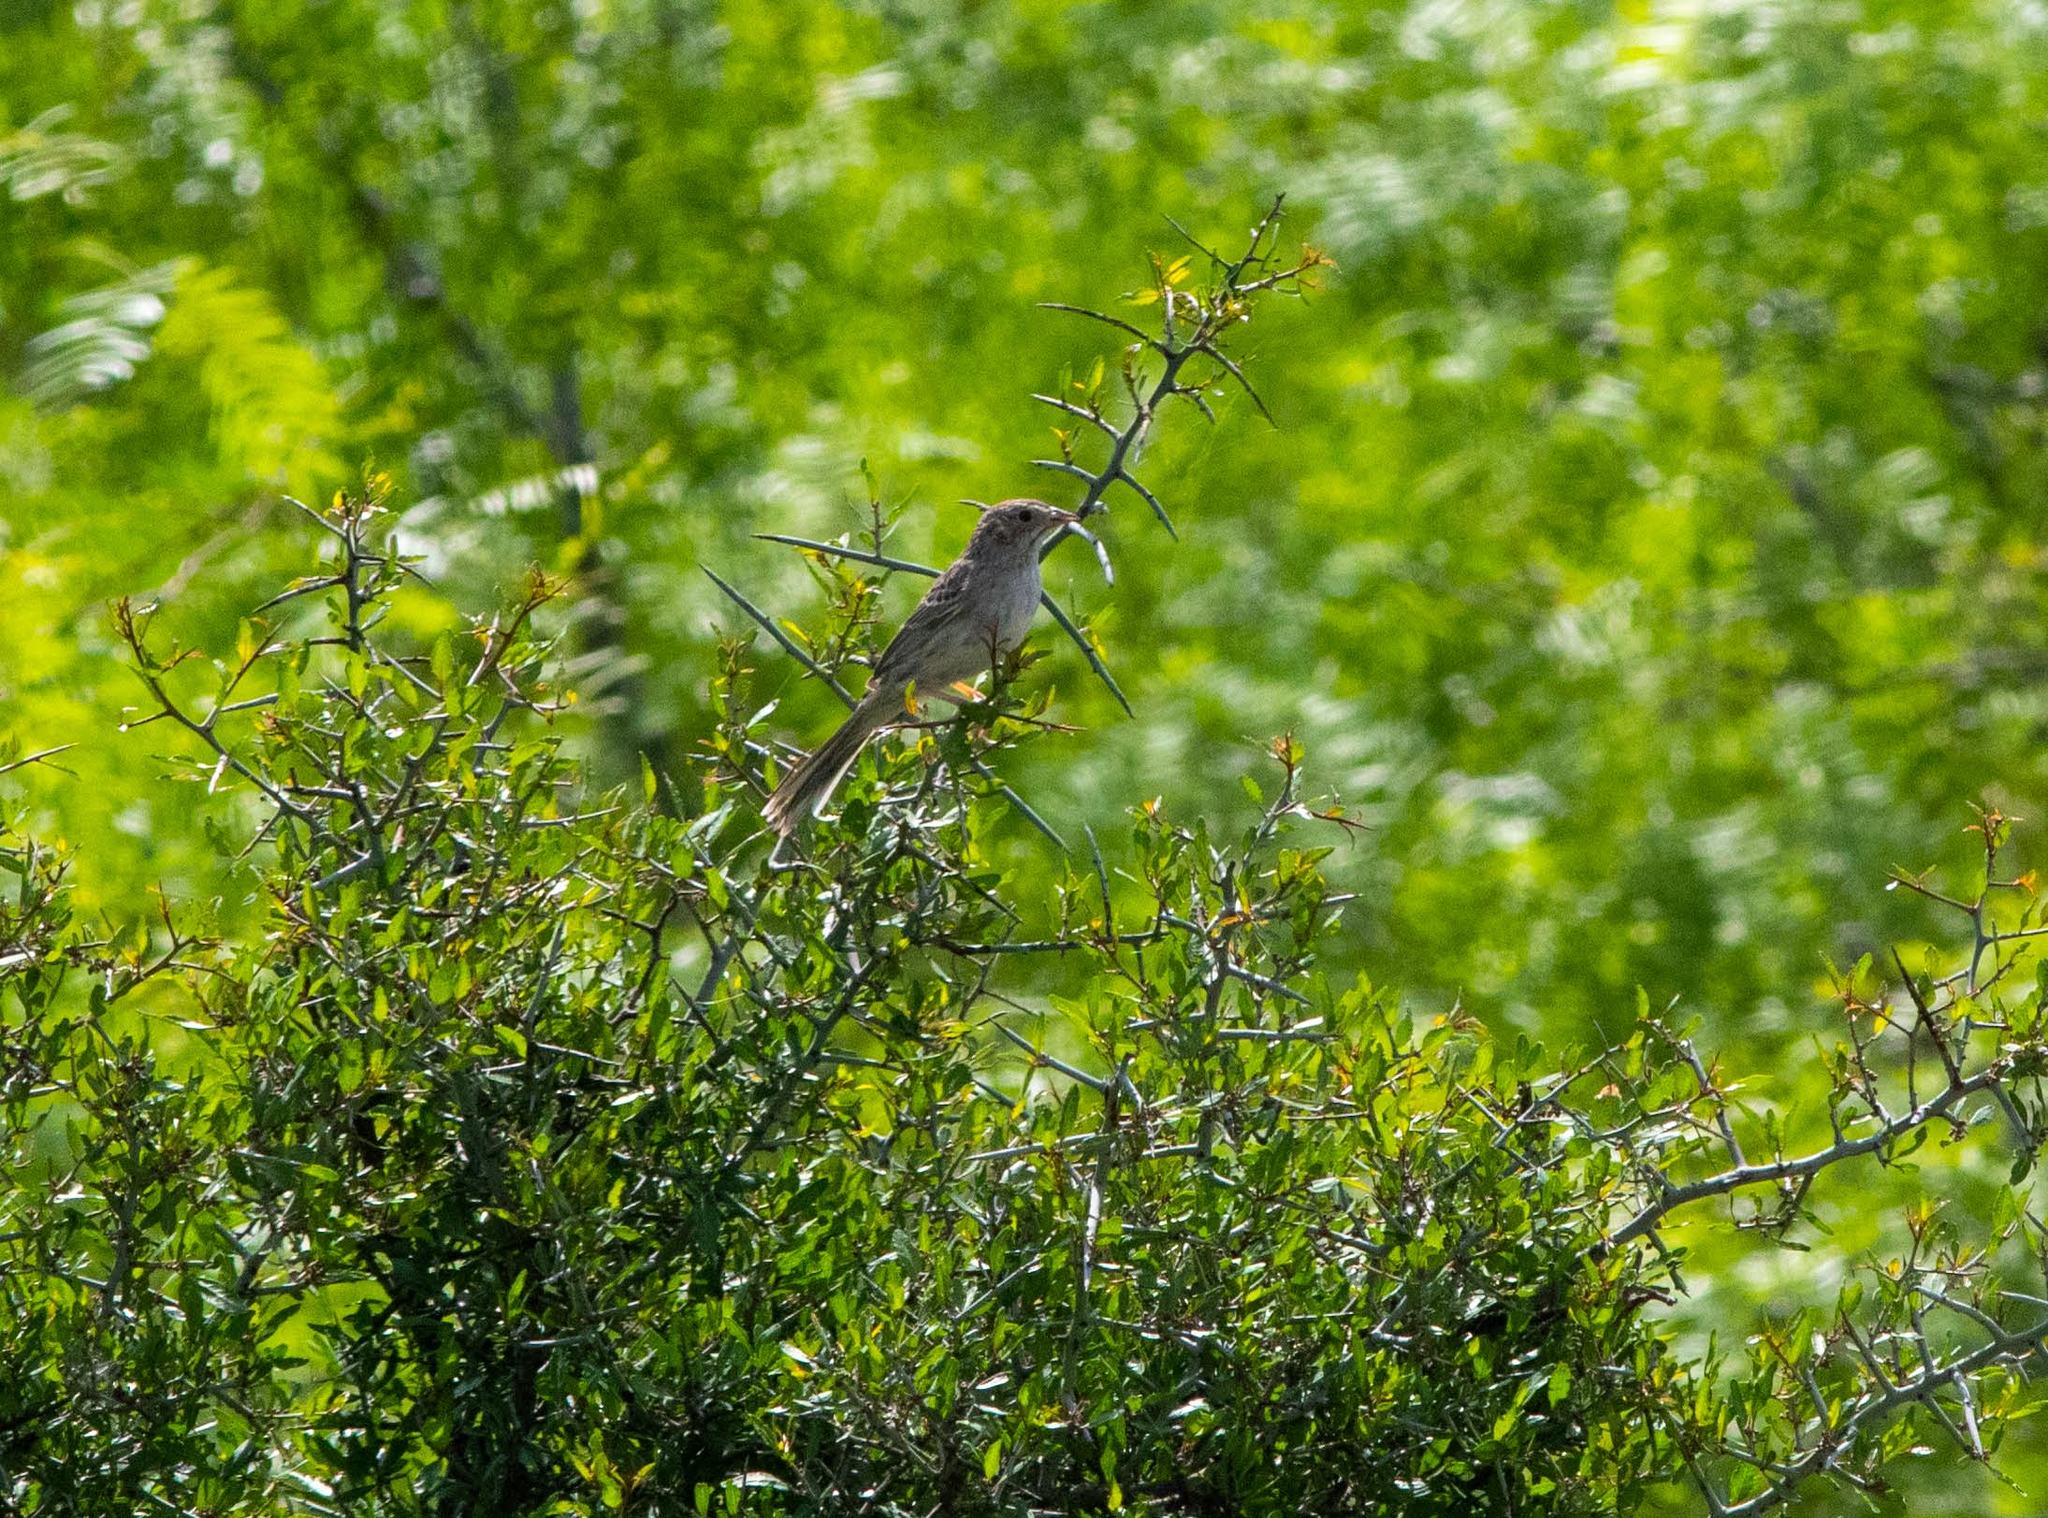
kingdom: Animalia
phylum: Chordata
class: Aves
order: Passeriformes
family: Passerellidae
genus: Peucaea
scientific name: Peucaea cassinii
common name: Cassin's sparrow
